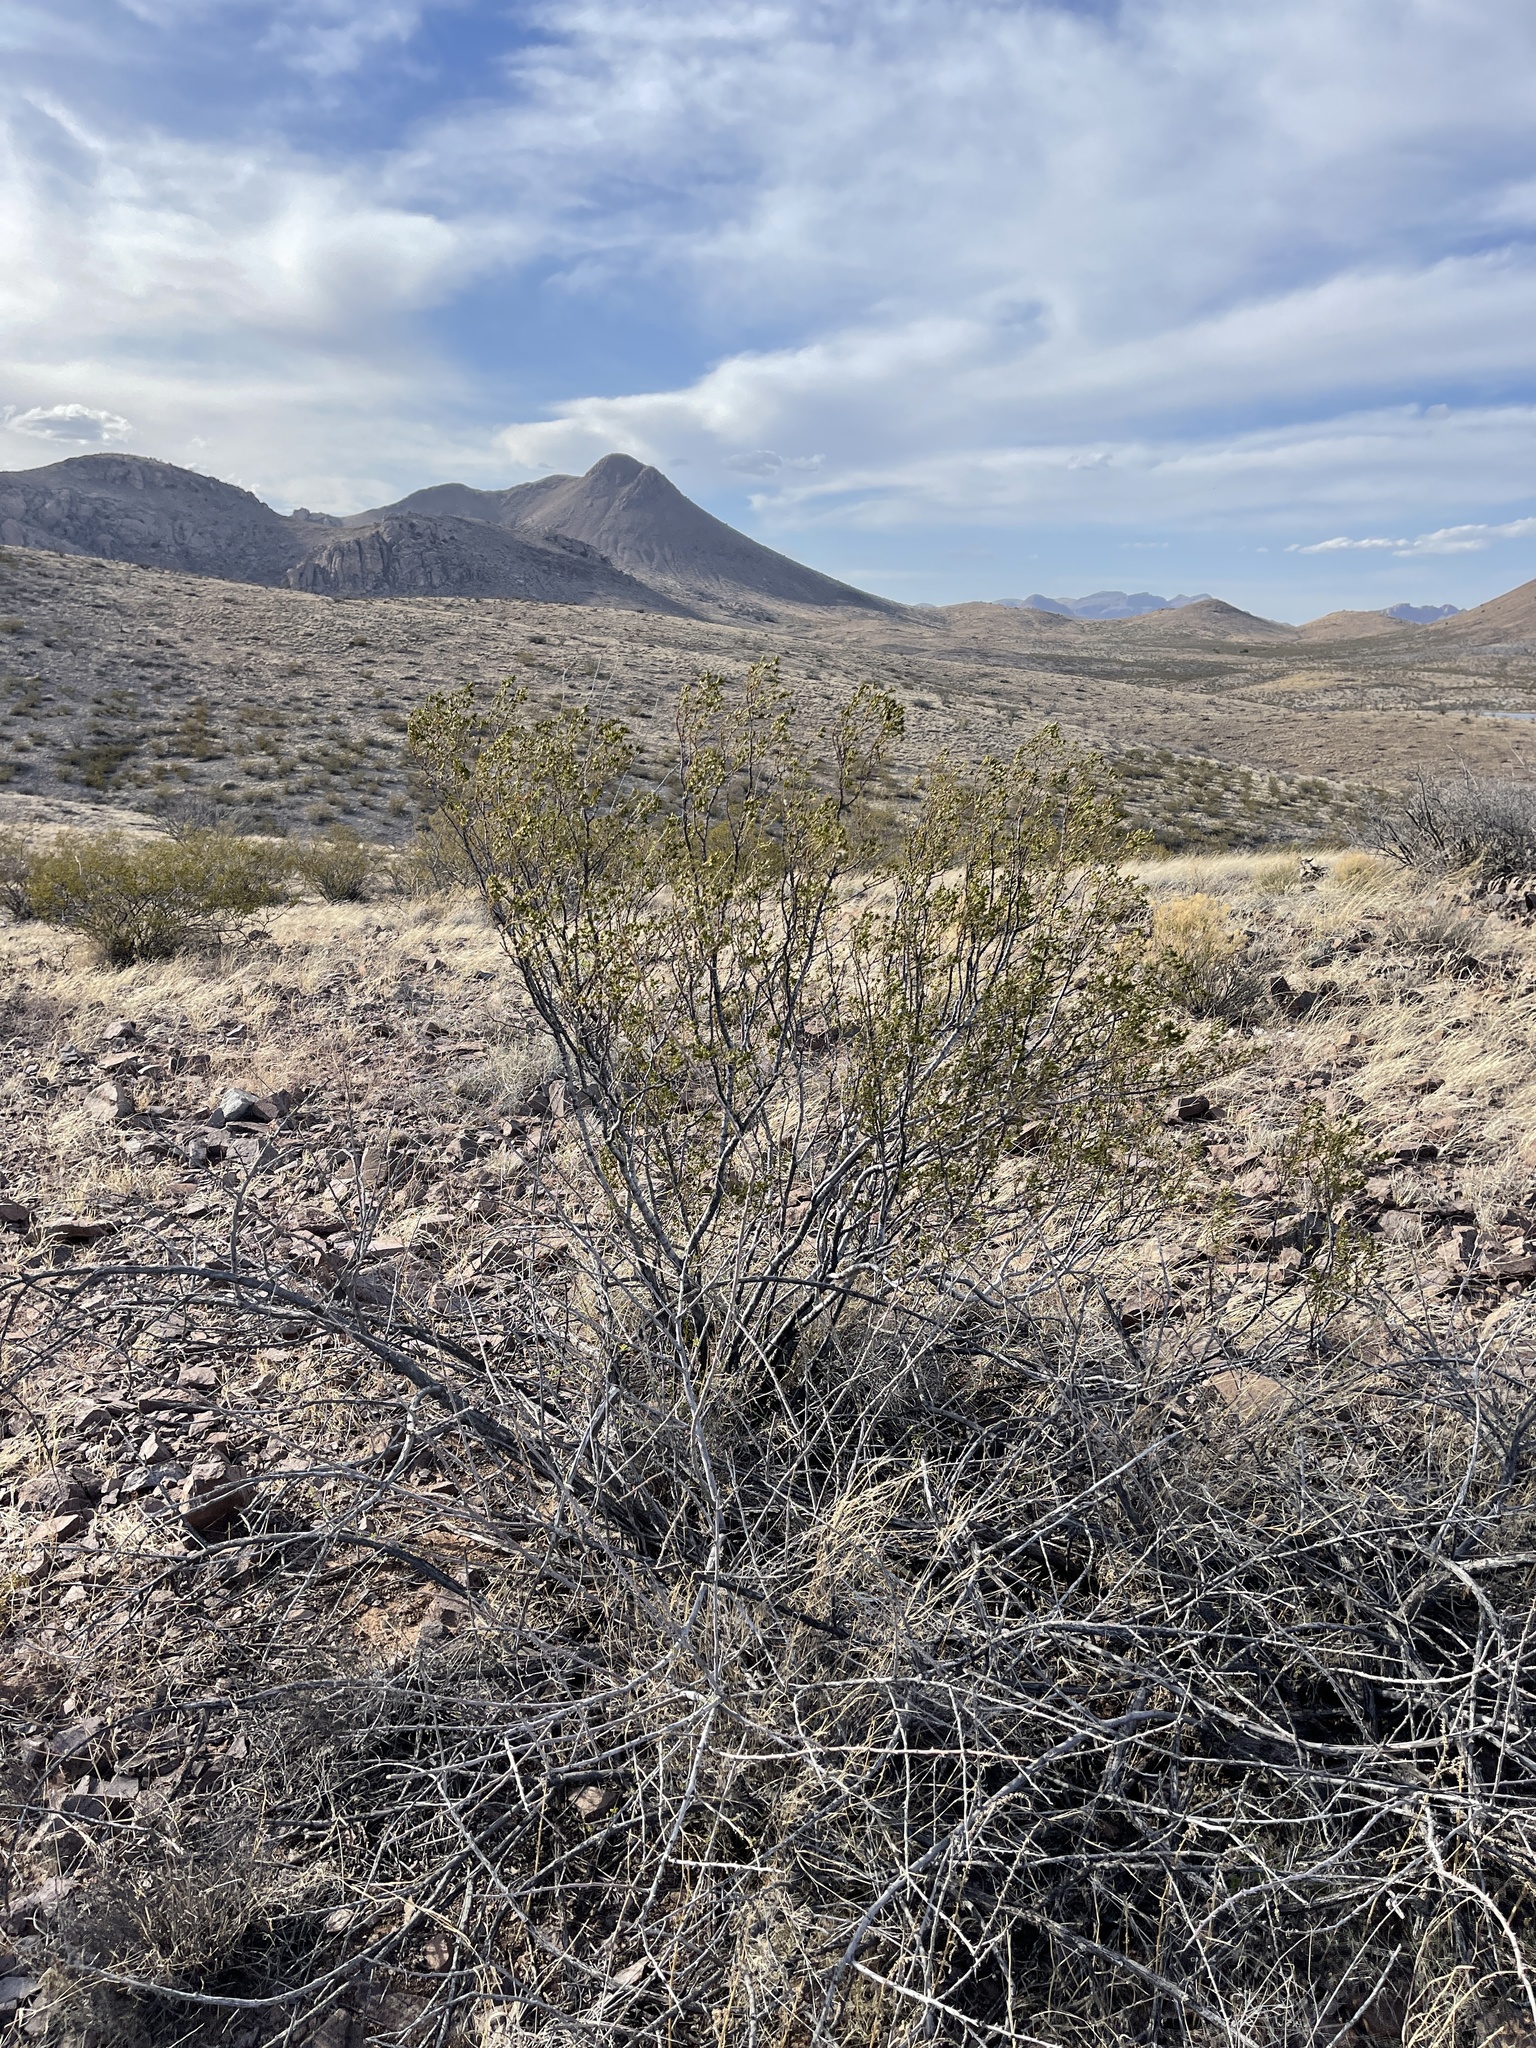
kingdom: Plantae
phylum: Tracheophyta
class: Magnoliopsida
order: Zygophyllales
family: Zygophyllaceae
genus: Larrea
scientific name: Larrea tridentata
